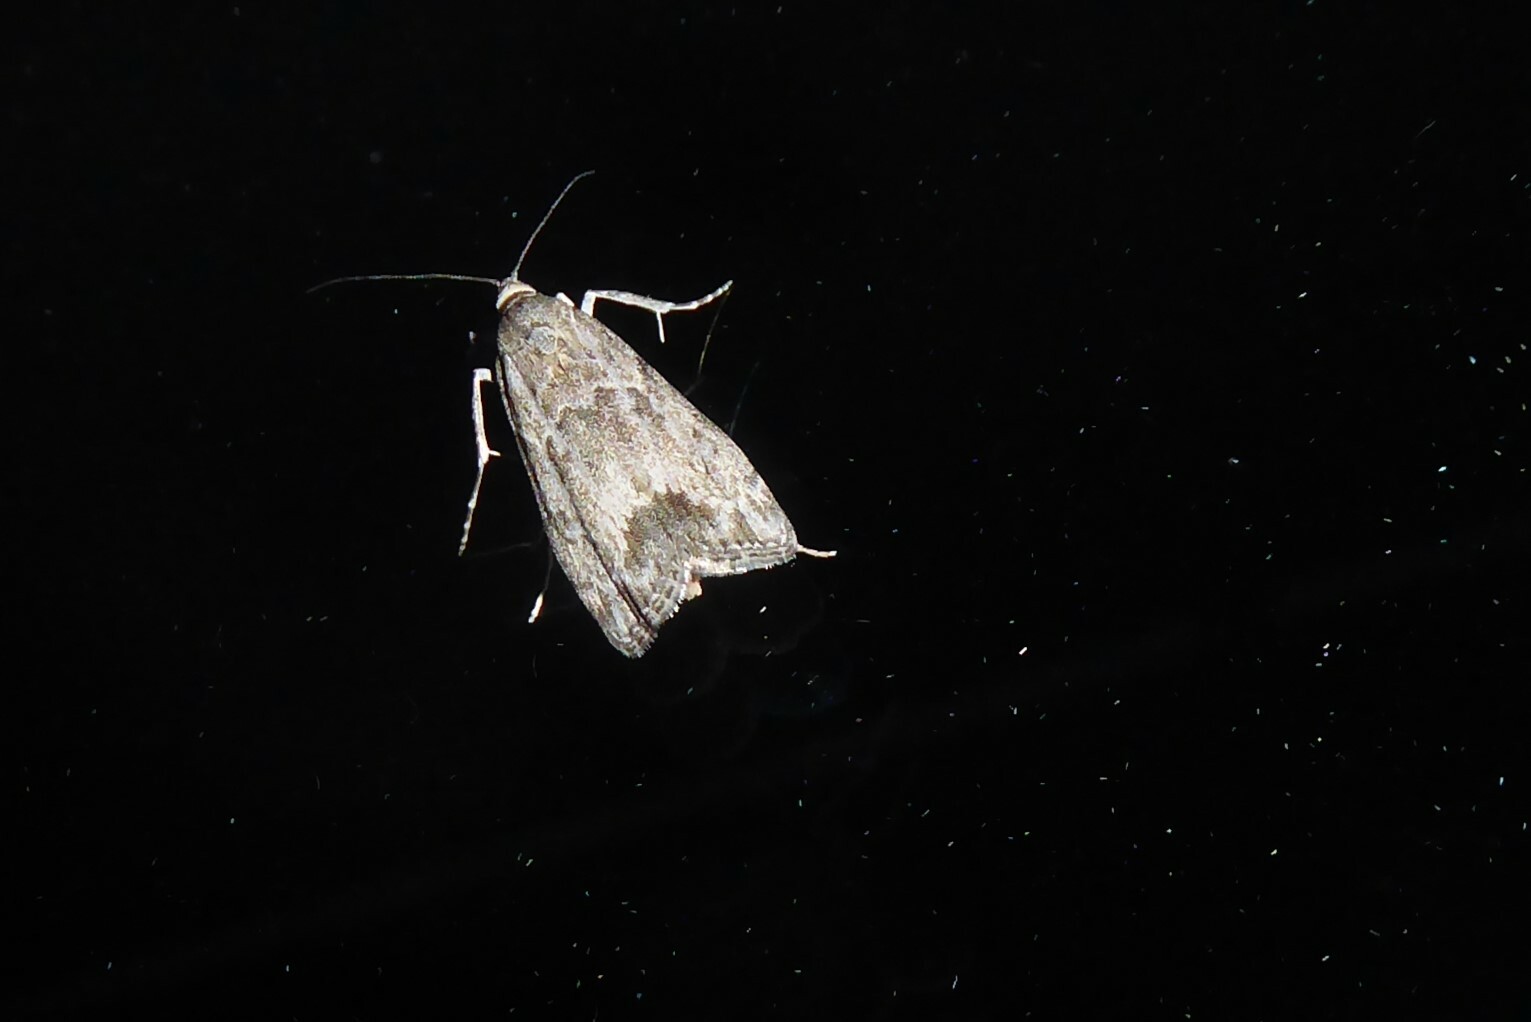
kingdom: Animalia
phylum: Arthropoda
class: Insecta
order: Lepidoptera
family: Crambidae
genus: Eudonia
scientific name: Eudonia rakaiensis
